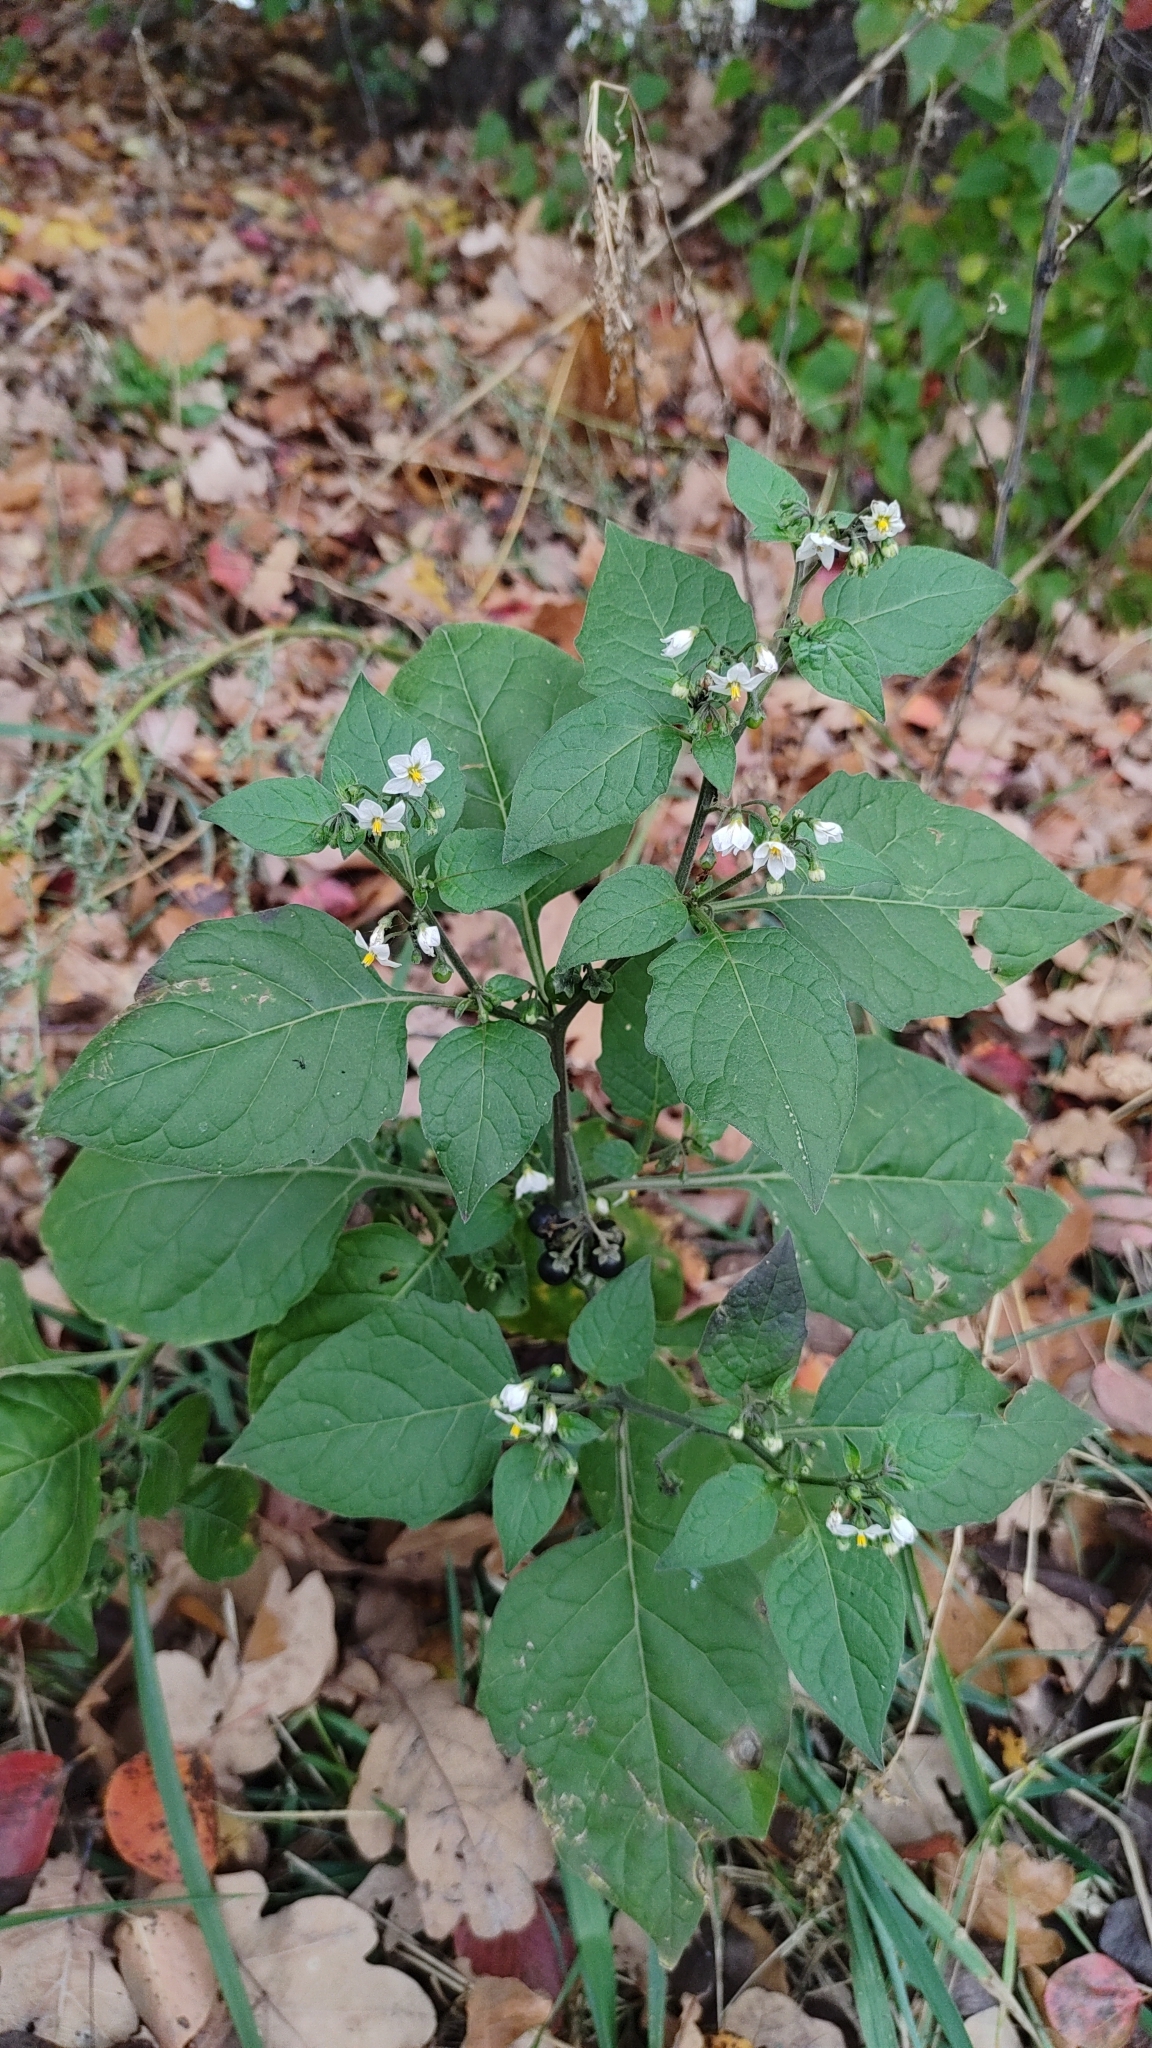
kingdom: Plantae
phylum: Tracheophyta
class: Magnoliopsida
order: Solanales
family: Solanaceae
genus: Solanum
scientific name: Solanum nigrum
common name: Black nightshade
